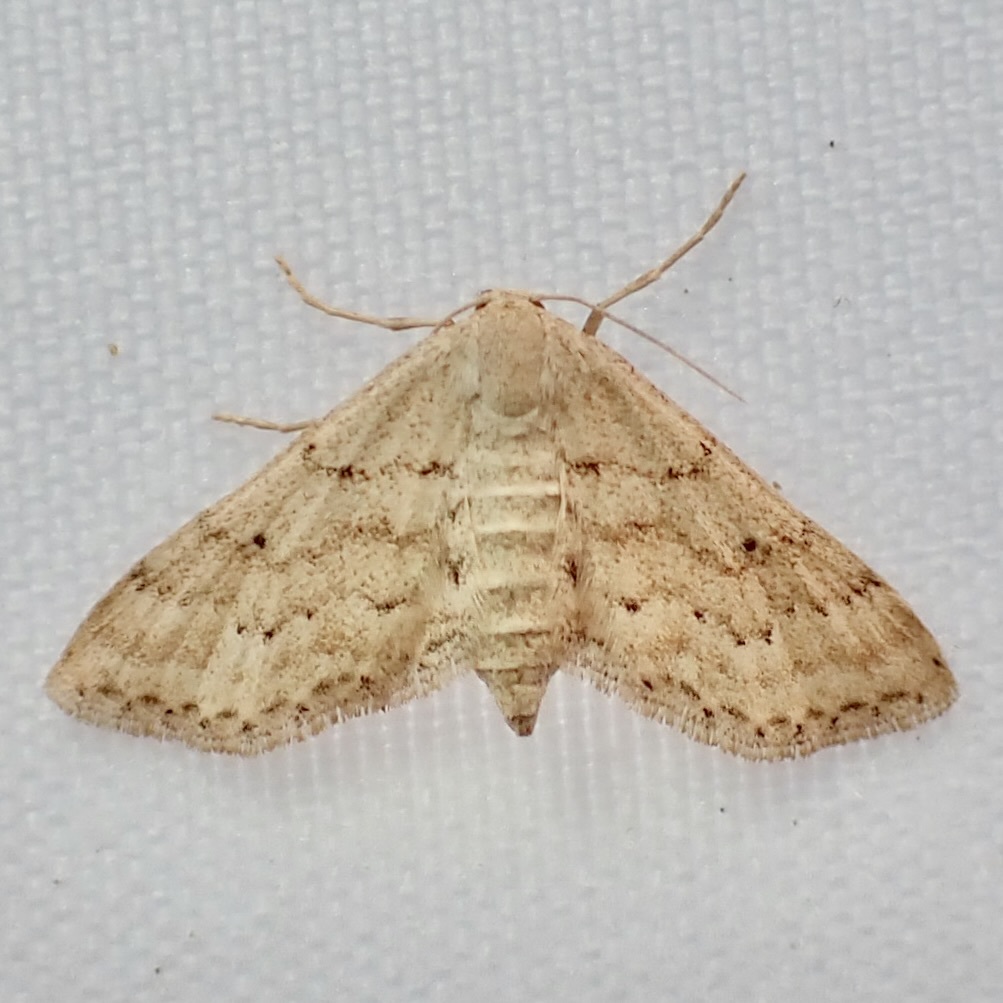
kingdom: Animalia
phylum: Arthropoda
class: Insecta
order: Lepidoptera
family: Geometridae
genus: Lobocleta
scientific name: Lobocleta ossularia
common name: Drab brown wave
